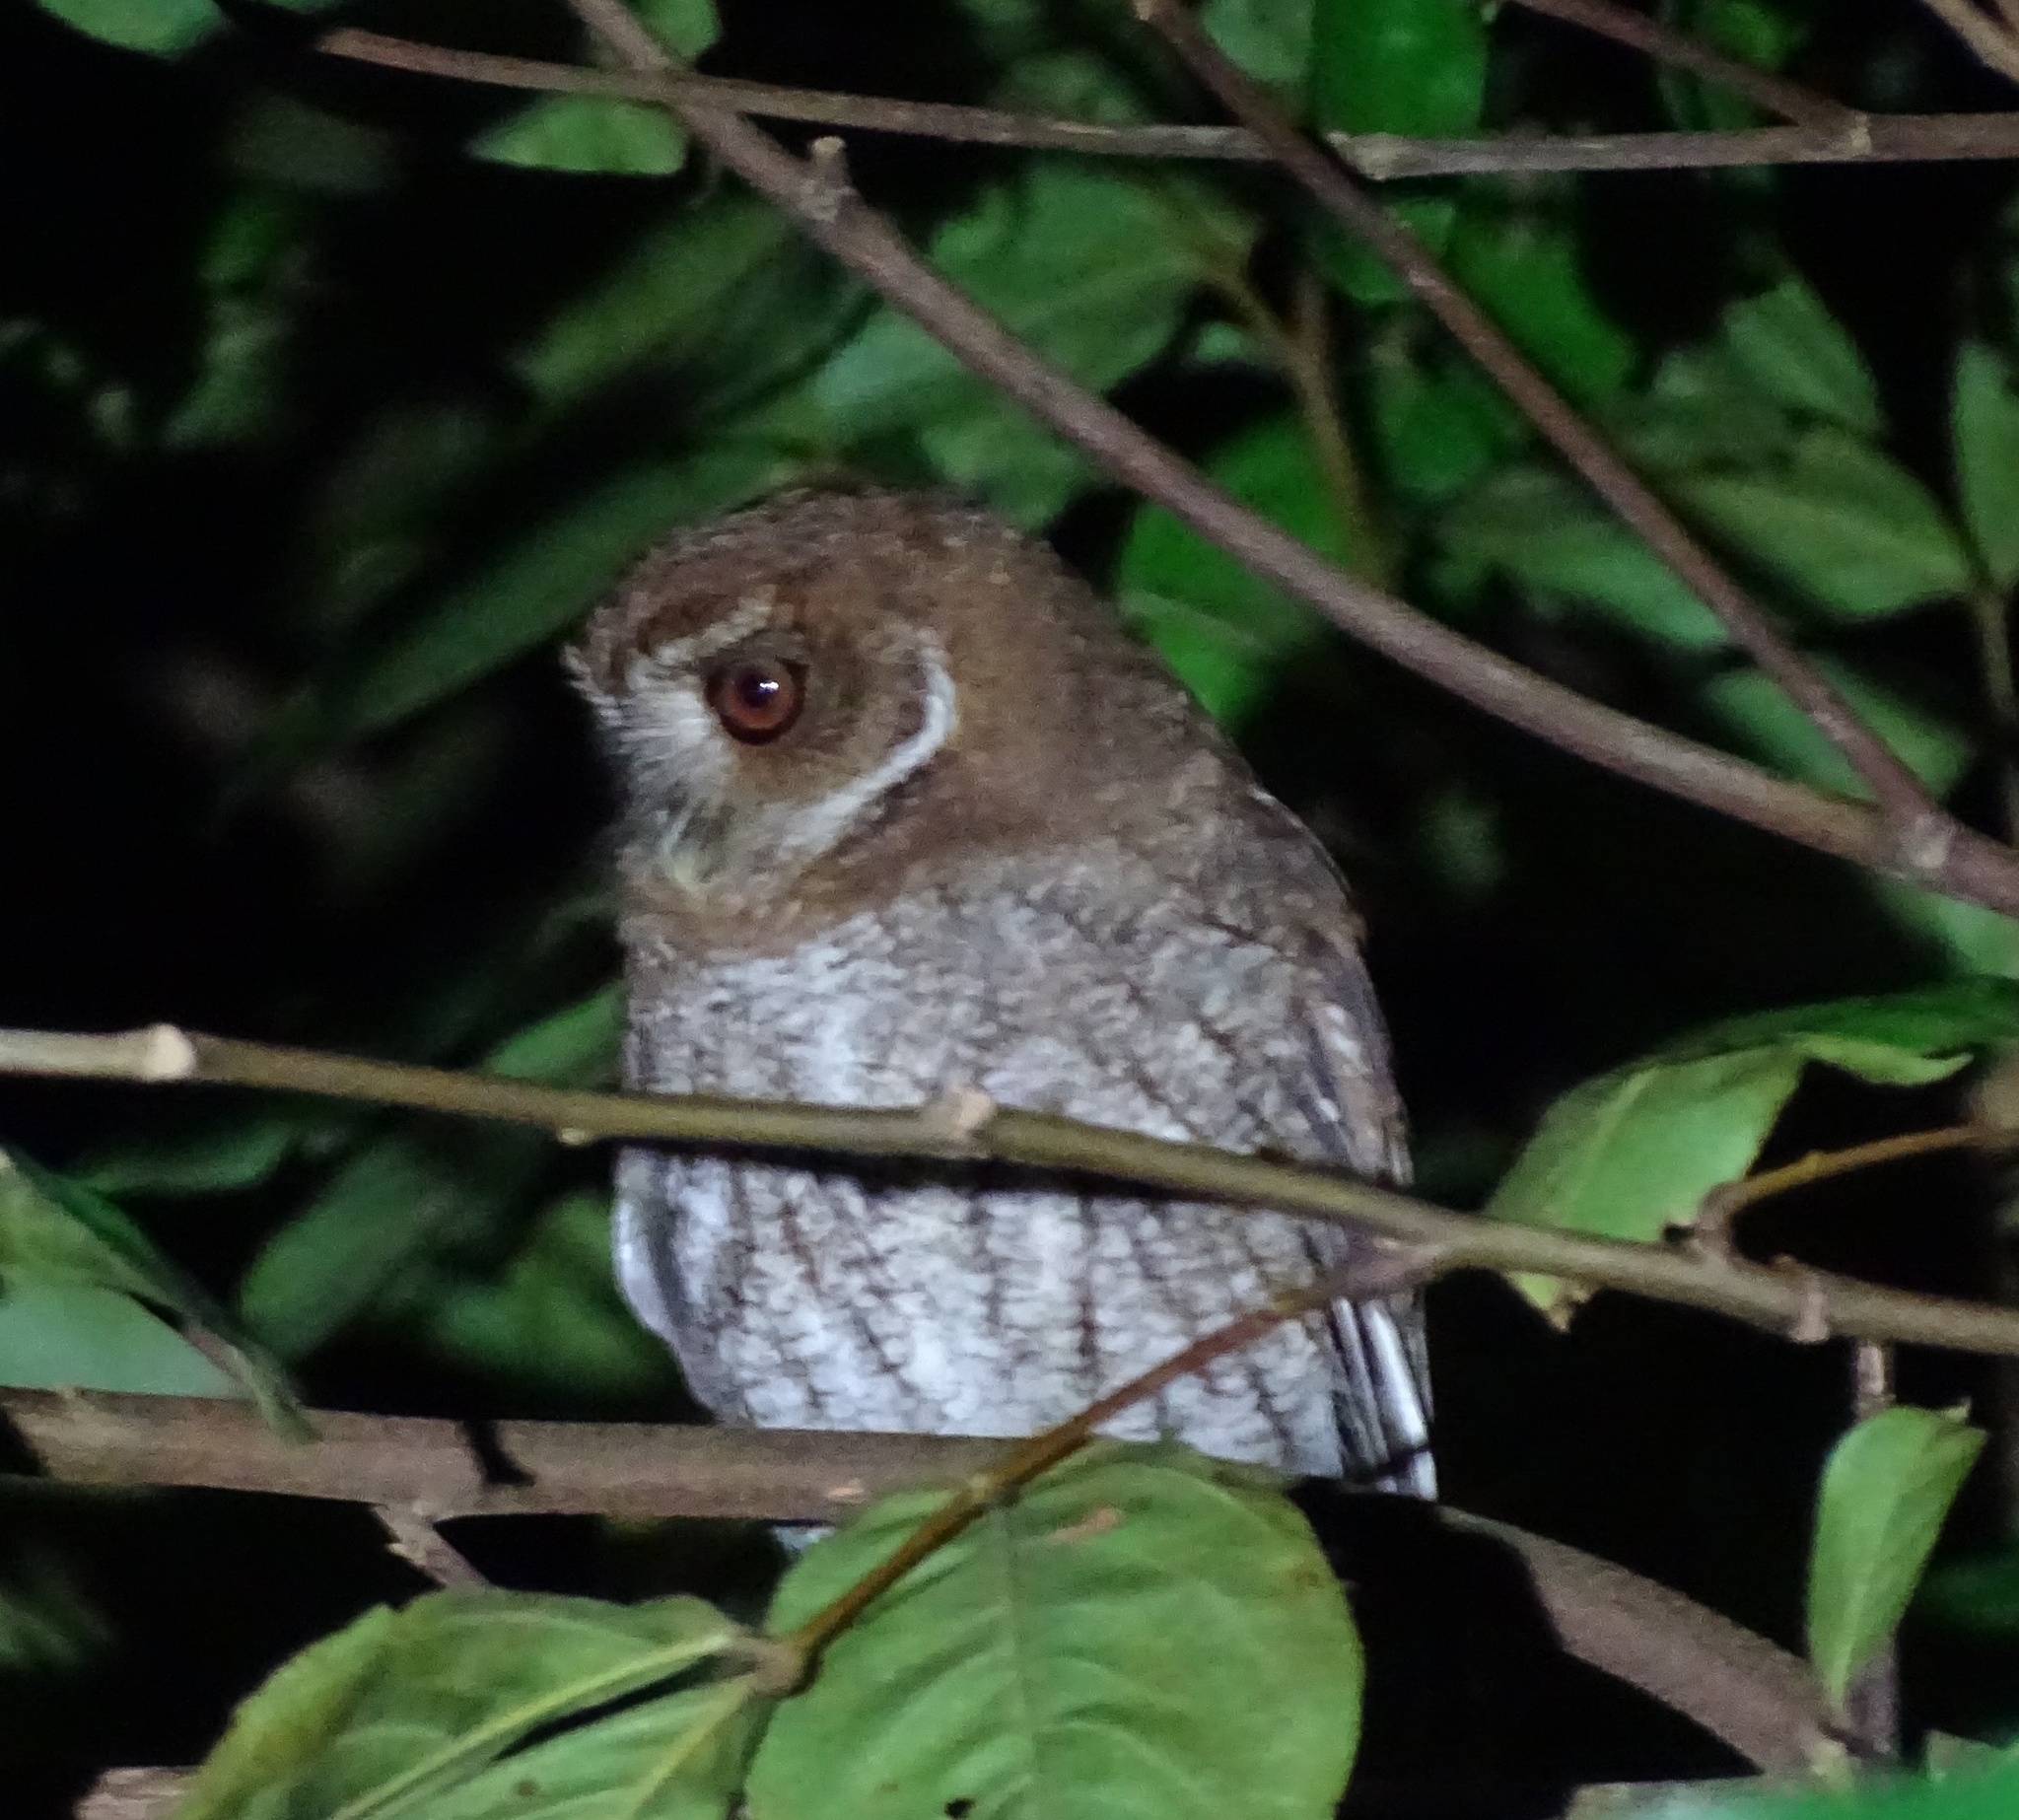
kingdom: Animalia
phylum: Chordata
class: Aves
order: Strigiformes
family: Strigidae
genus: Megascops
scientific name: Megascops nudipes
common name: Puerto rican screech-owl
